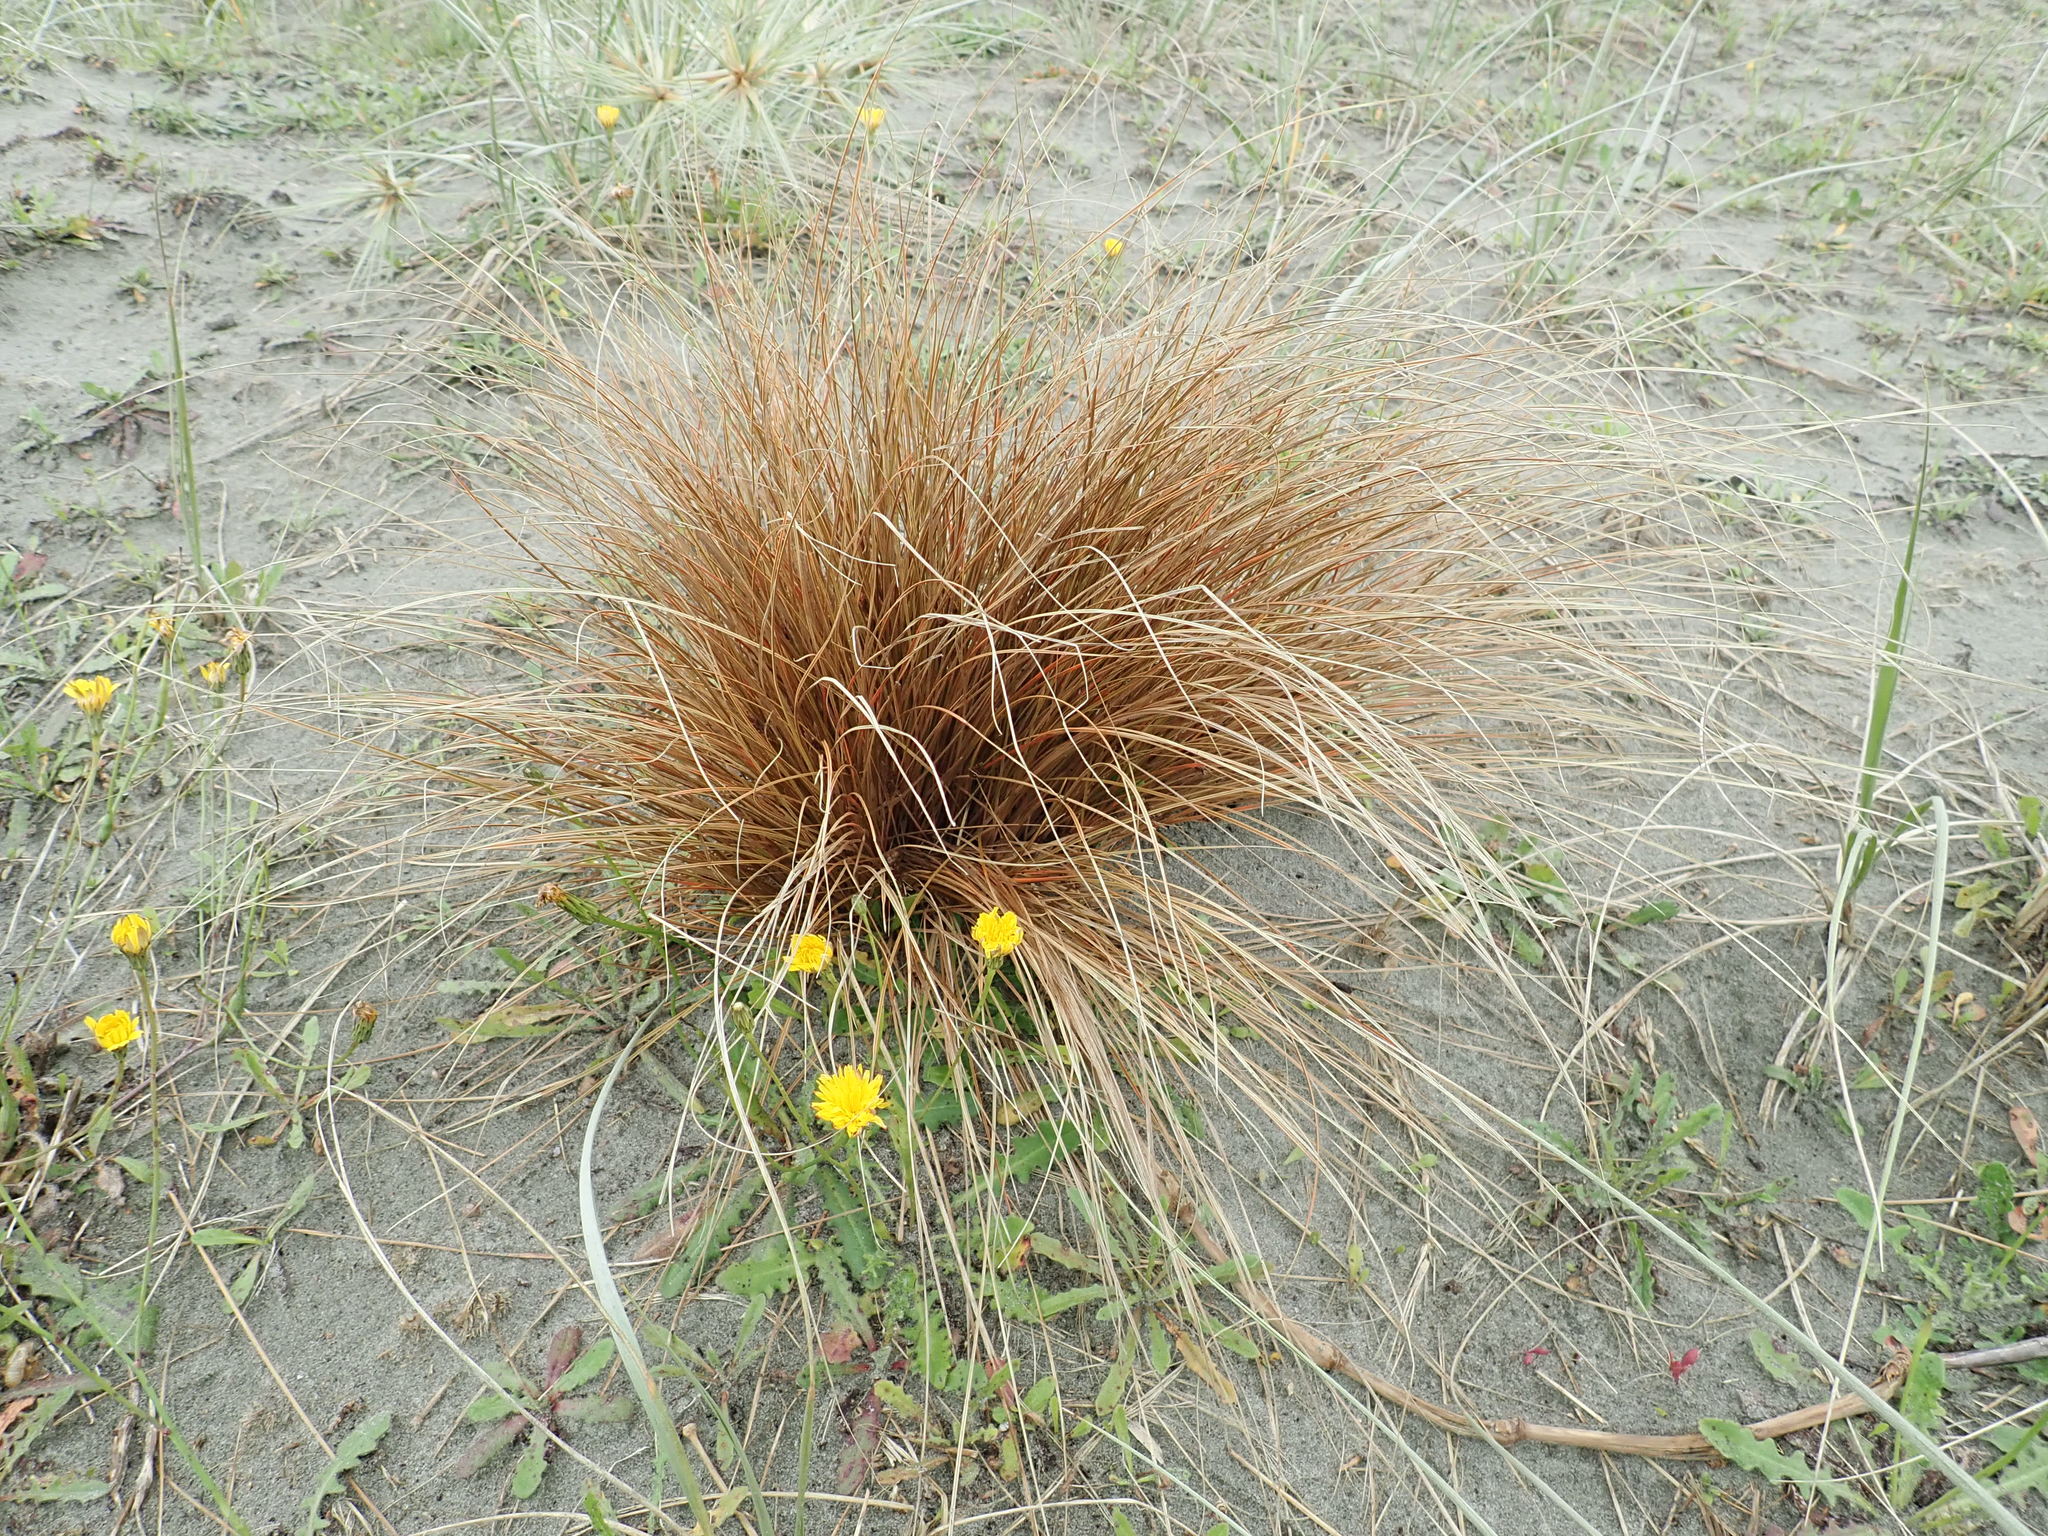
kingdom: Plantae
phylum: Tracheophyta
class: Liliopsida
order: Poales
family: Cyperaceae
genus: Carex
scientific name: Carex testacea
